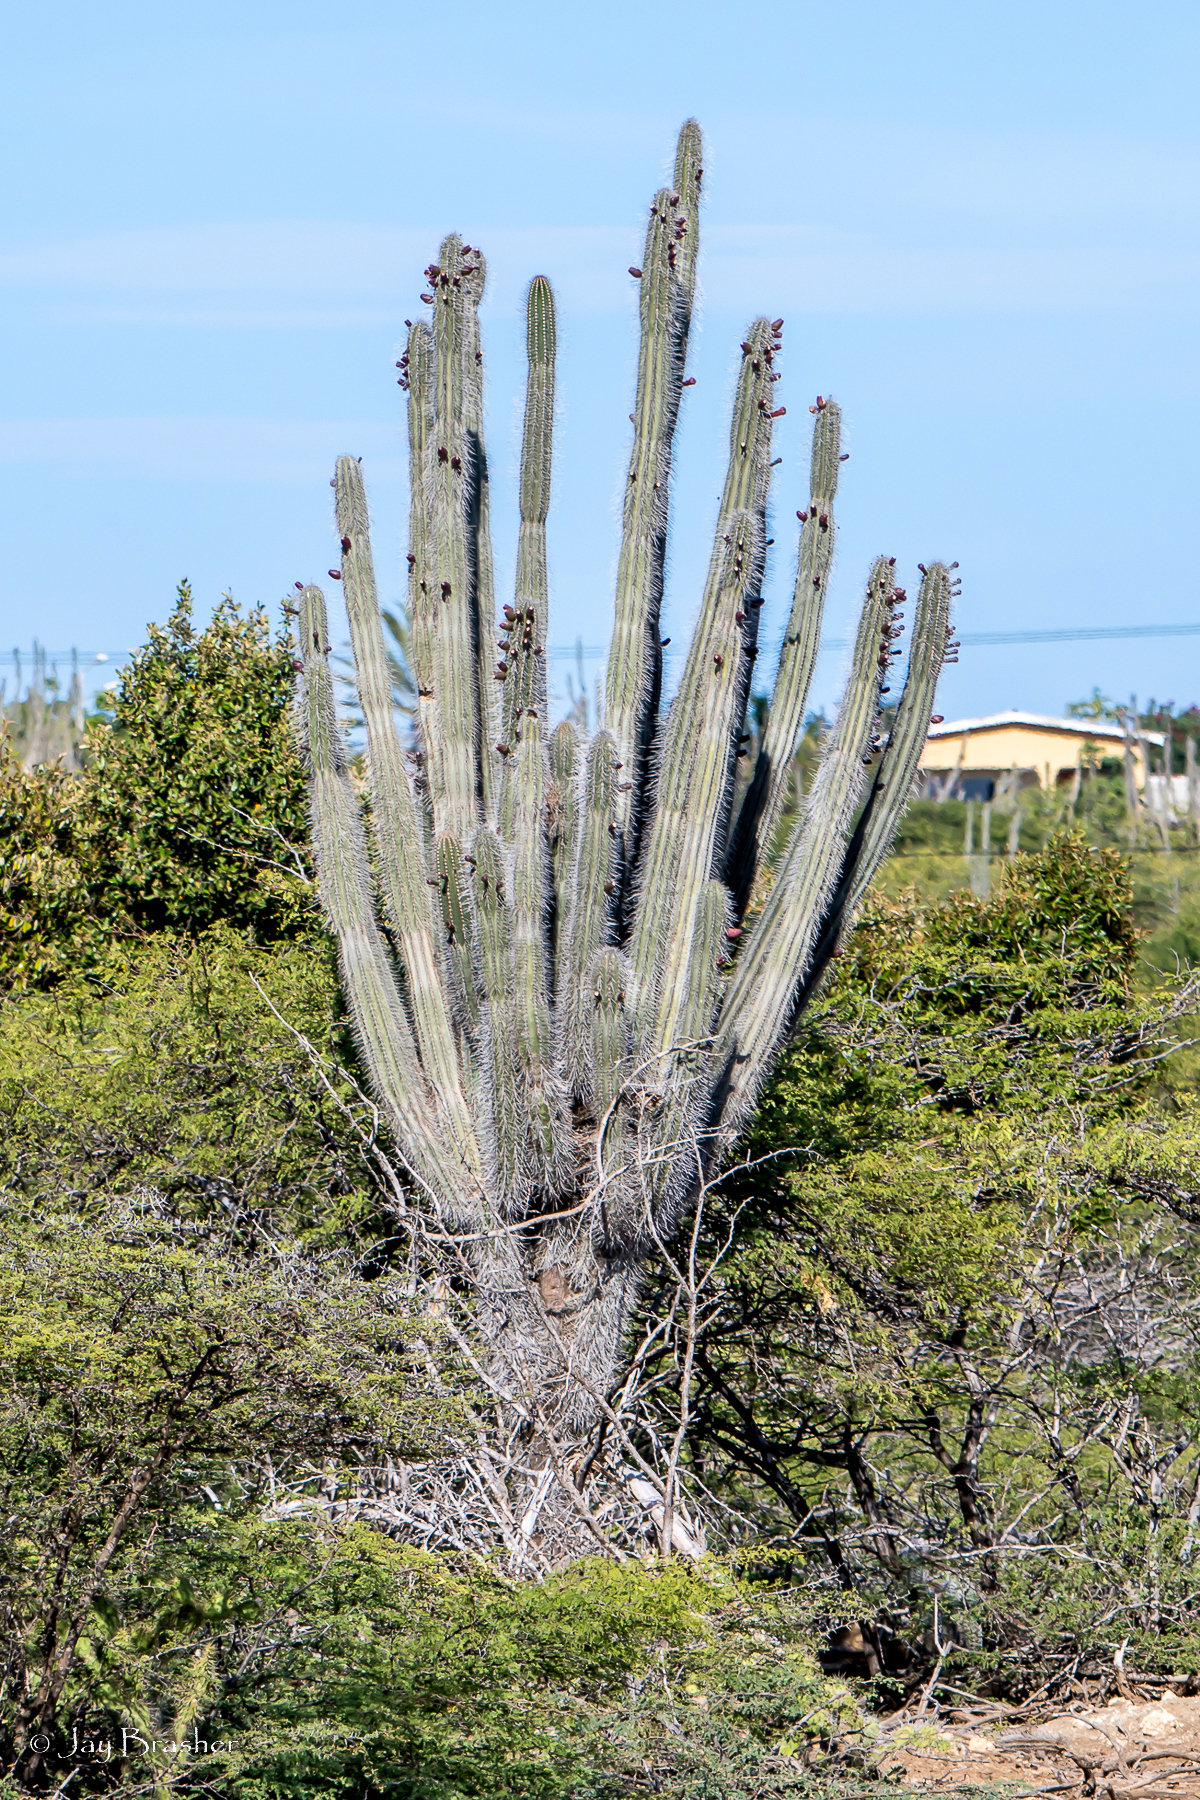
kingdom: Plantae
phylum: Tracheophyta
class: Magnoliopsida
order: Caryophyllales
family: Cactaceae
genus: Stenocereus
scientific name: Stenocereus griseus
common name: Tall candelabra cactus
